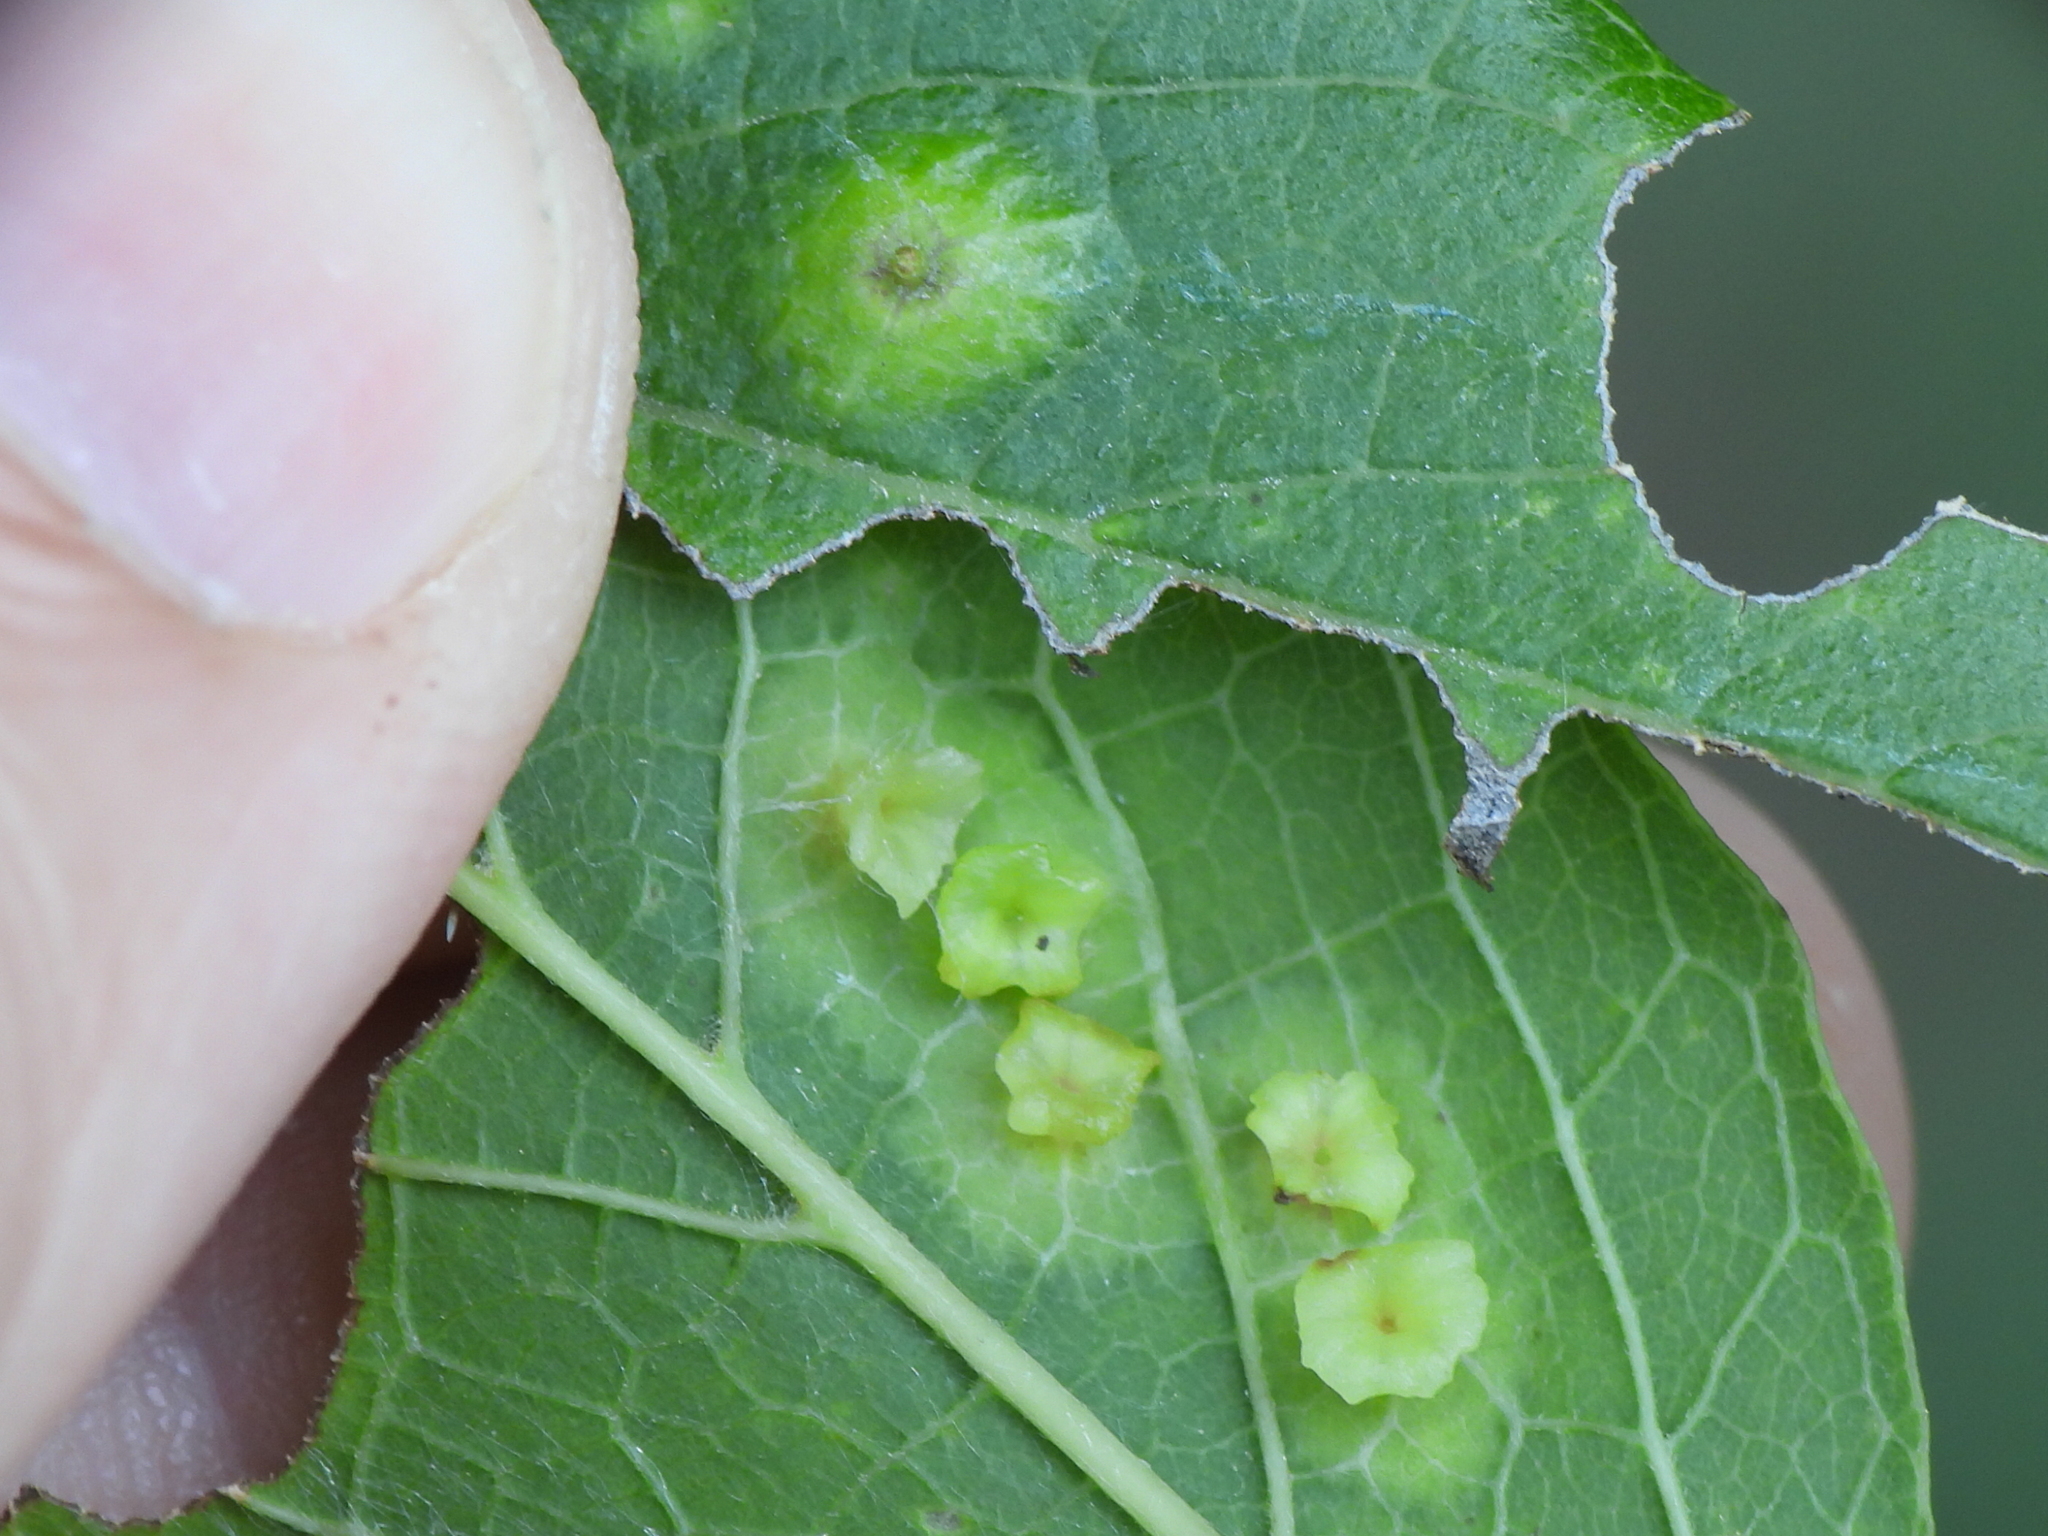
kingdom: Animalia
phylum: Arthropoda
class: Insecta
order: Hemiptera
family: Aphalaridae
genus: Pachypsylla
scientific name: Pachypsylla celtidisasterisca
